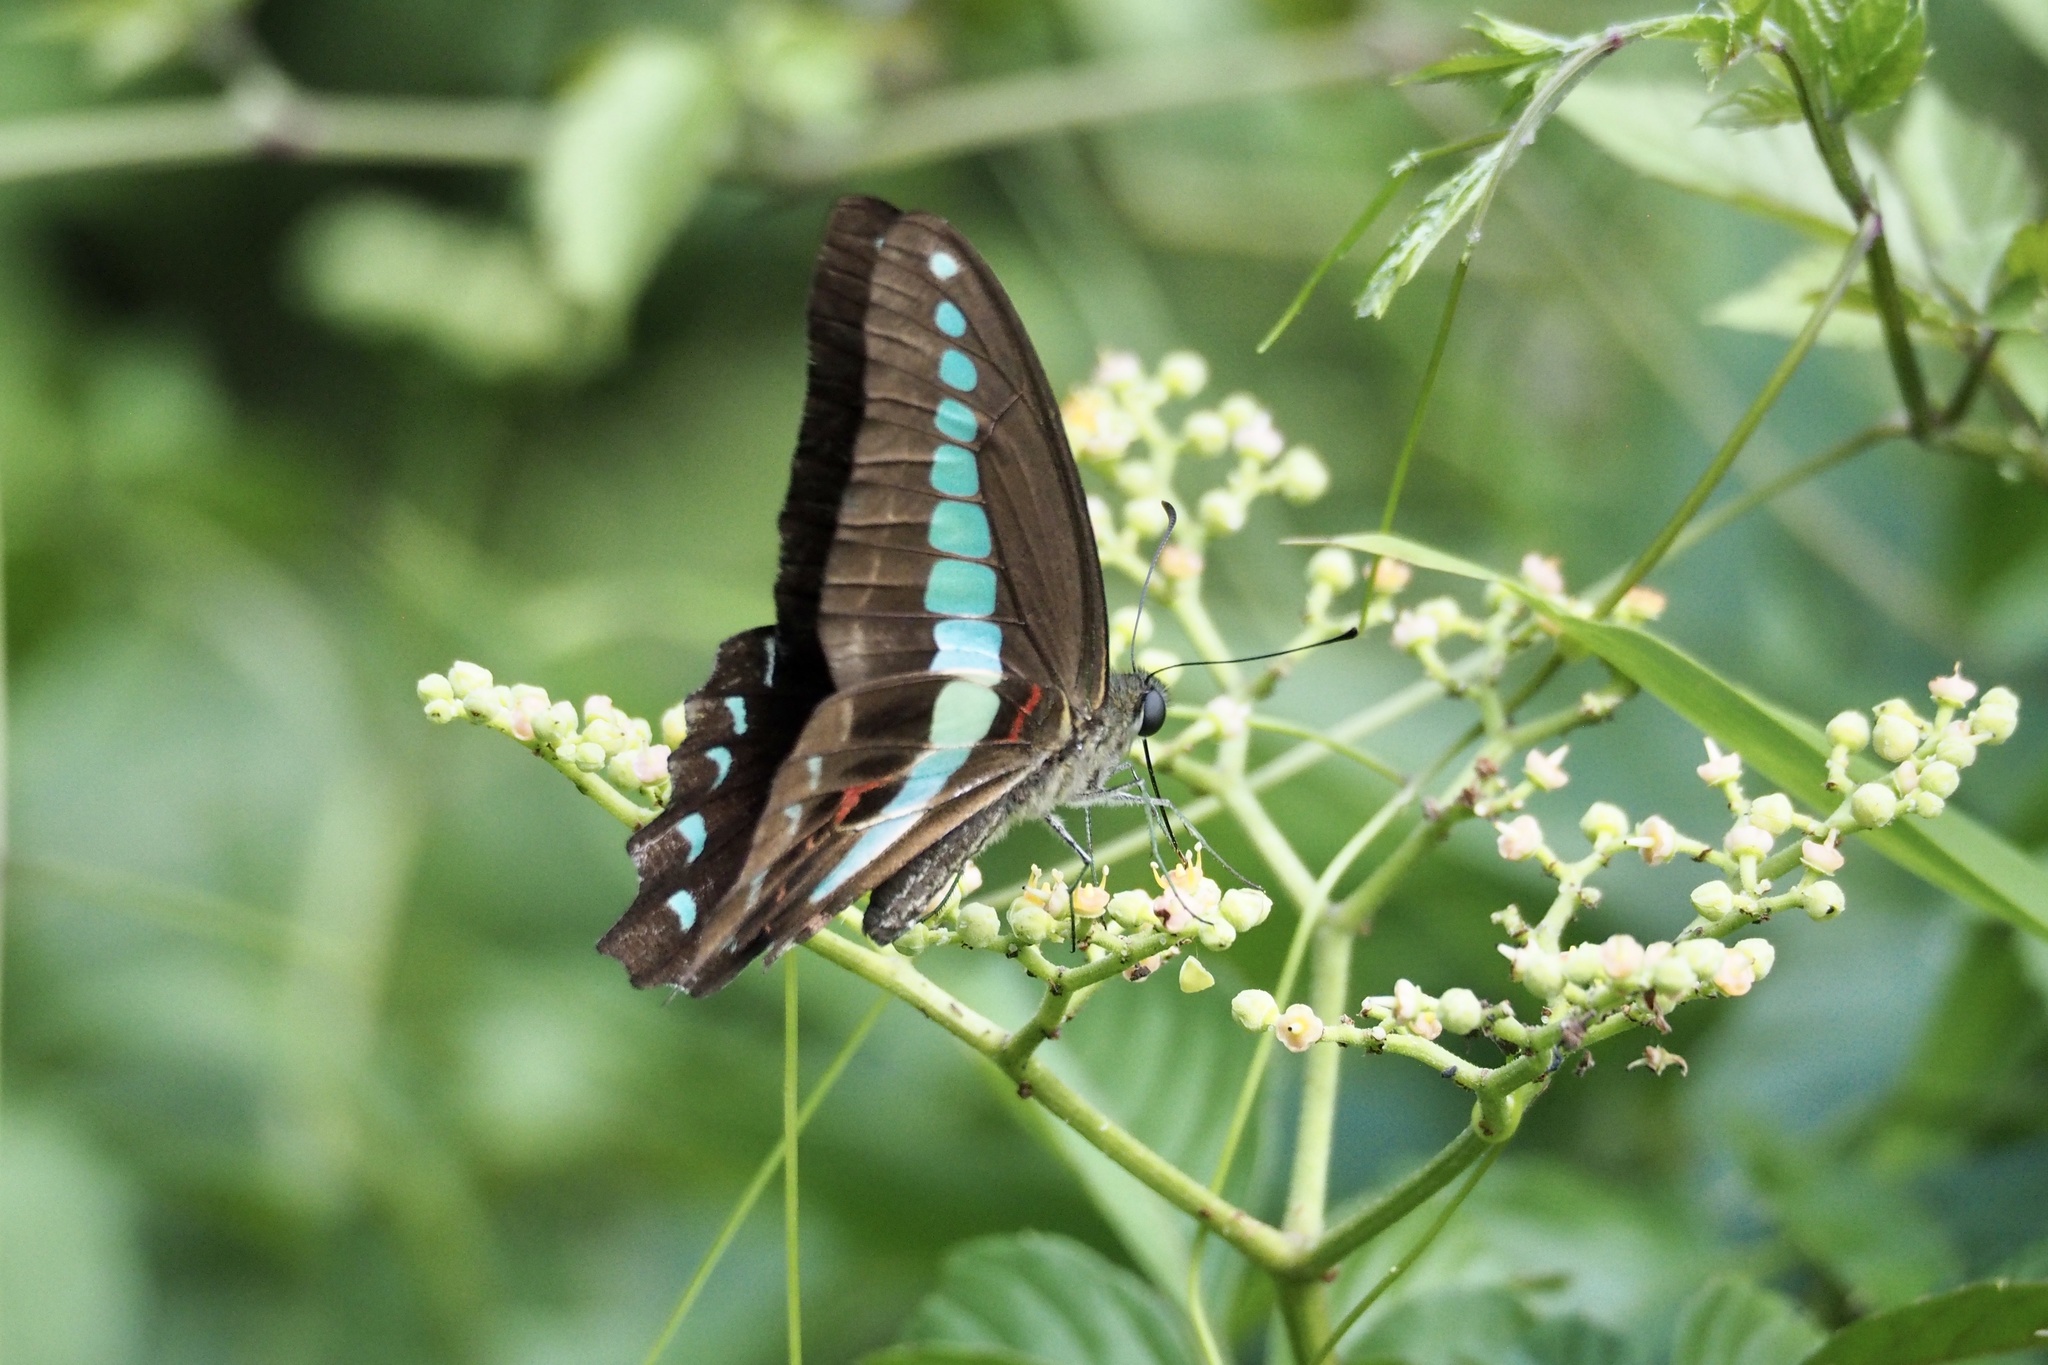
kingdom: Fungi
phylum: Ascomycota
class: Sordariomycetes
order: Microascales
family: Microascaceae
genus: Graphium
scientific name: Graphium sarpedon
